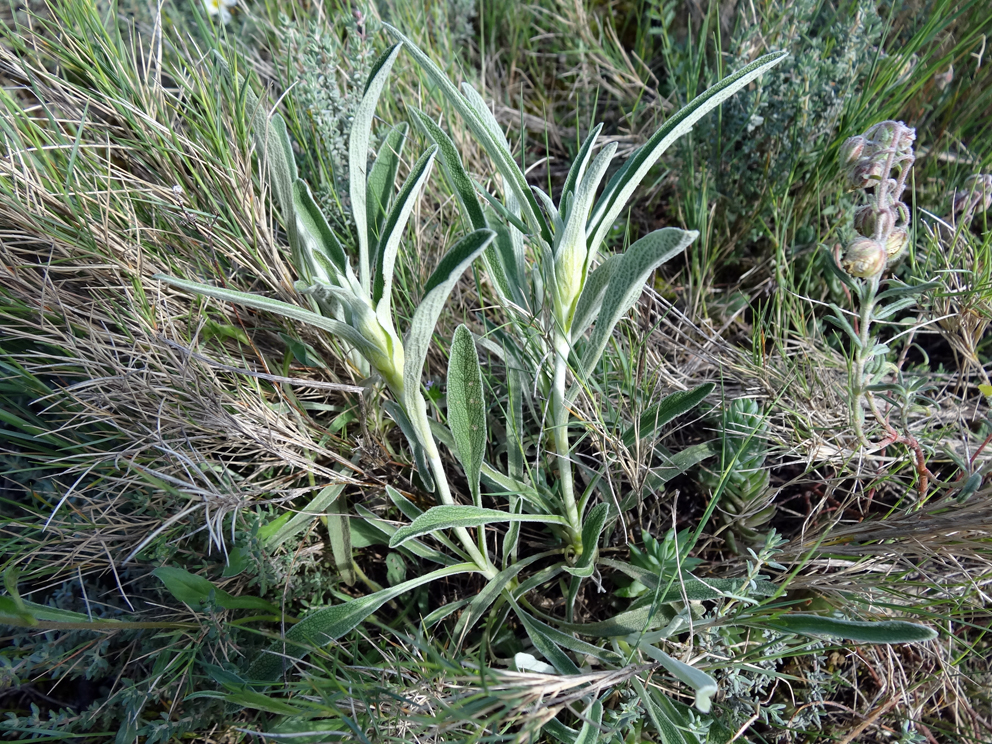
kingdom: Plantae
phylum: Tracheophyta
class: Magnoliopsida
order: Lamiales
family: Lamiaceae
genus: Phlomis
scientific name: Phlomis lychnitis
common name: Lampwickplant
